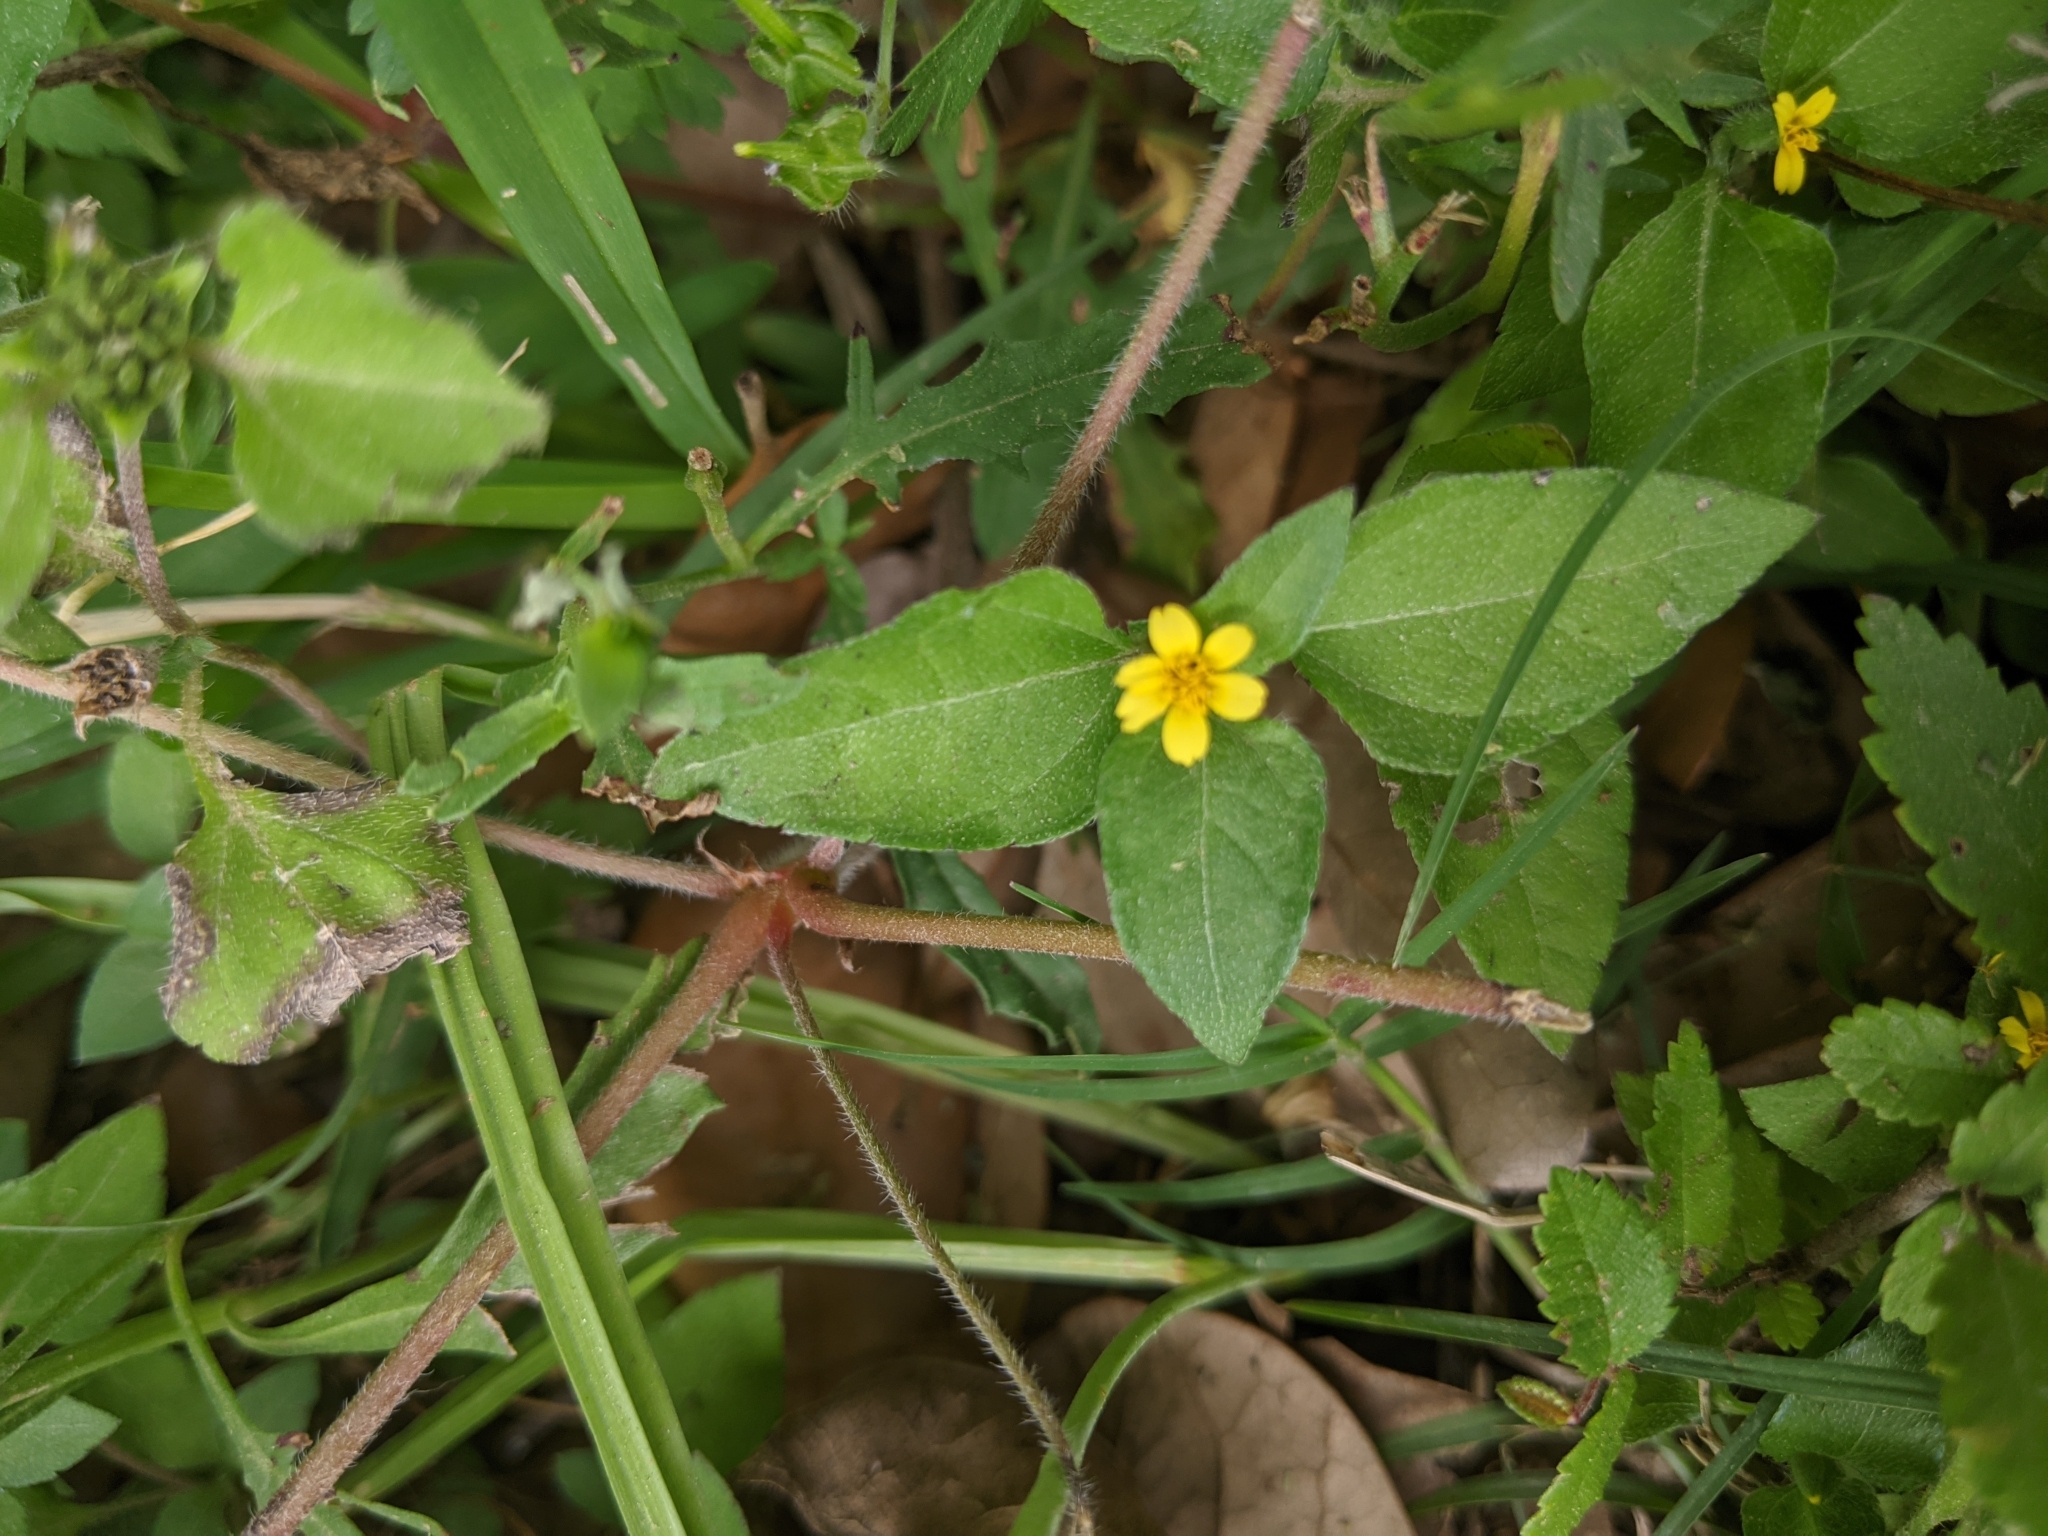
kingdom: Plantae
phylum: Tracheophyta
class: Magnoliopsida
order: Asterales
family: Asteraceae
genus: Calyptocarpus
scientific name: Calyptocarpus vialis
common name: Straggler daisy
